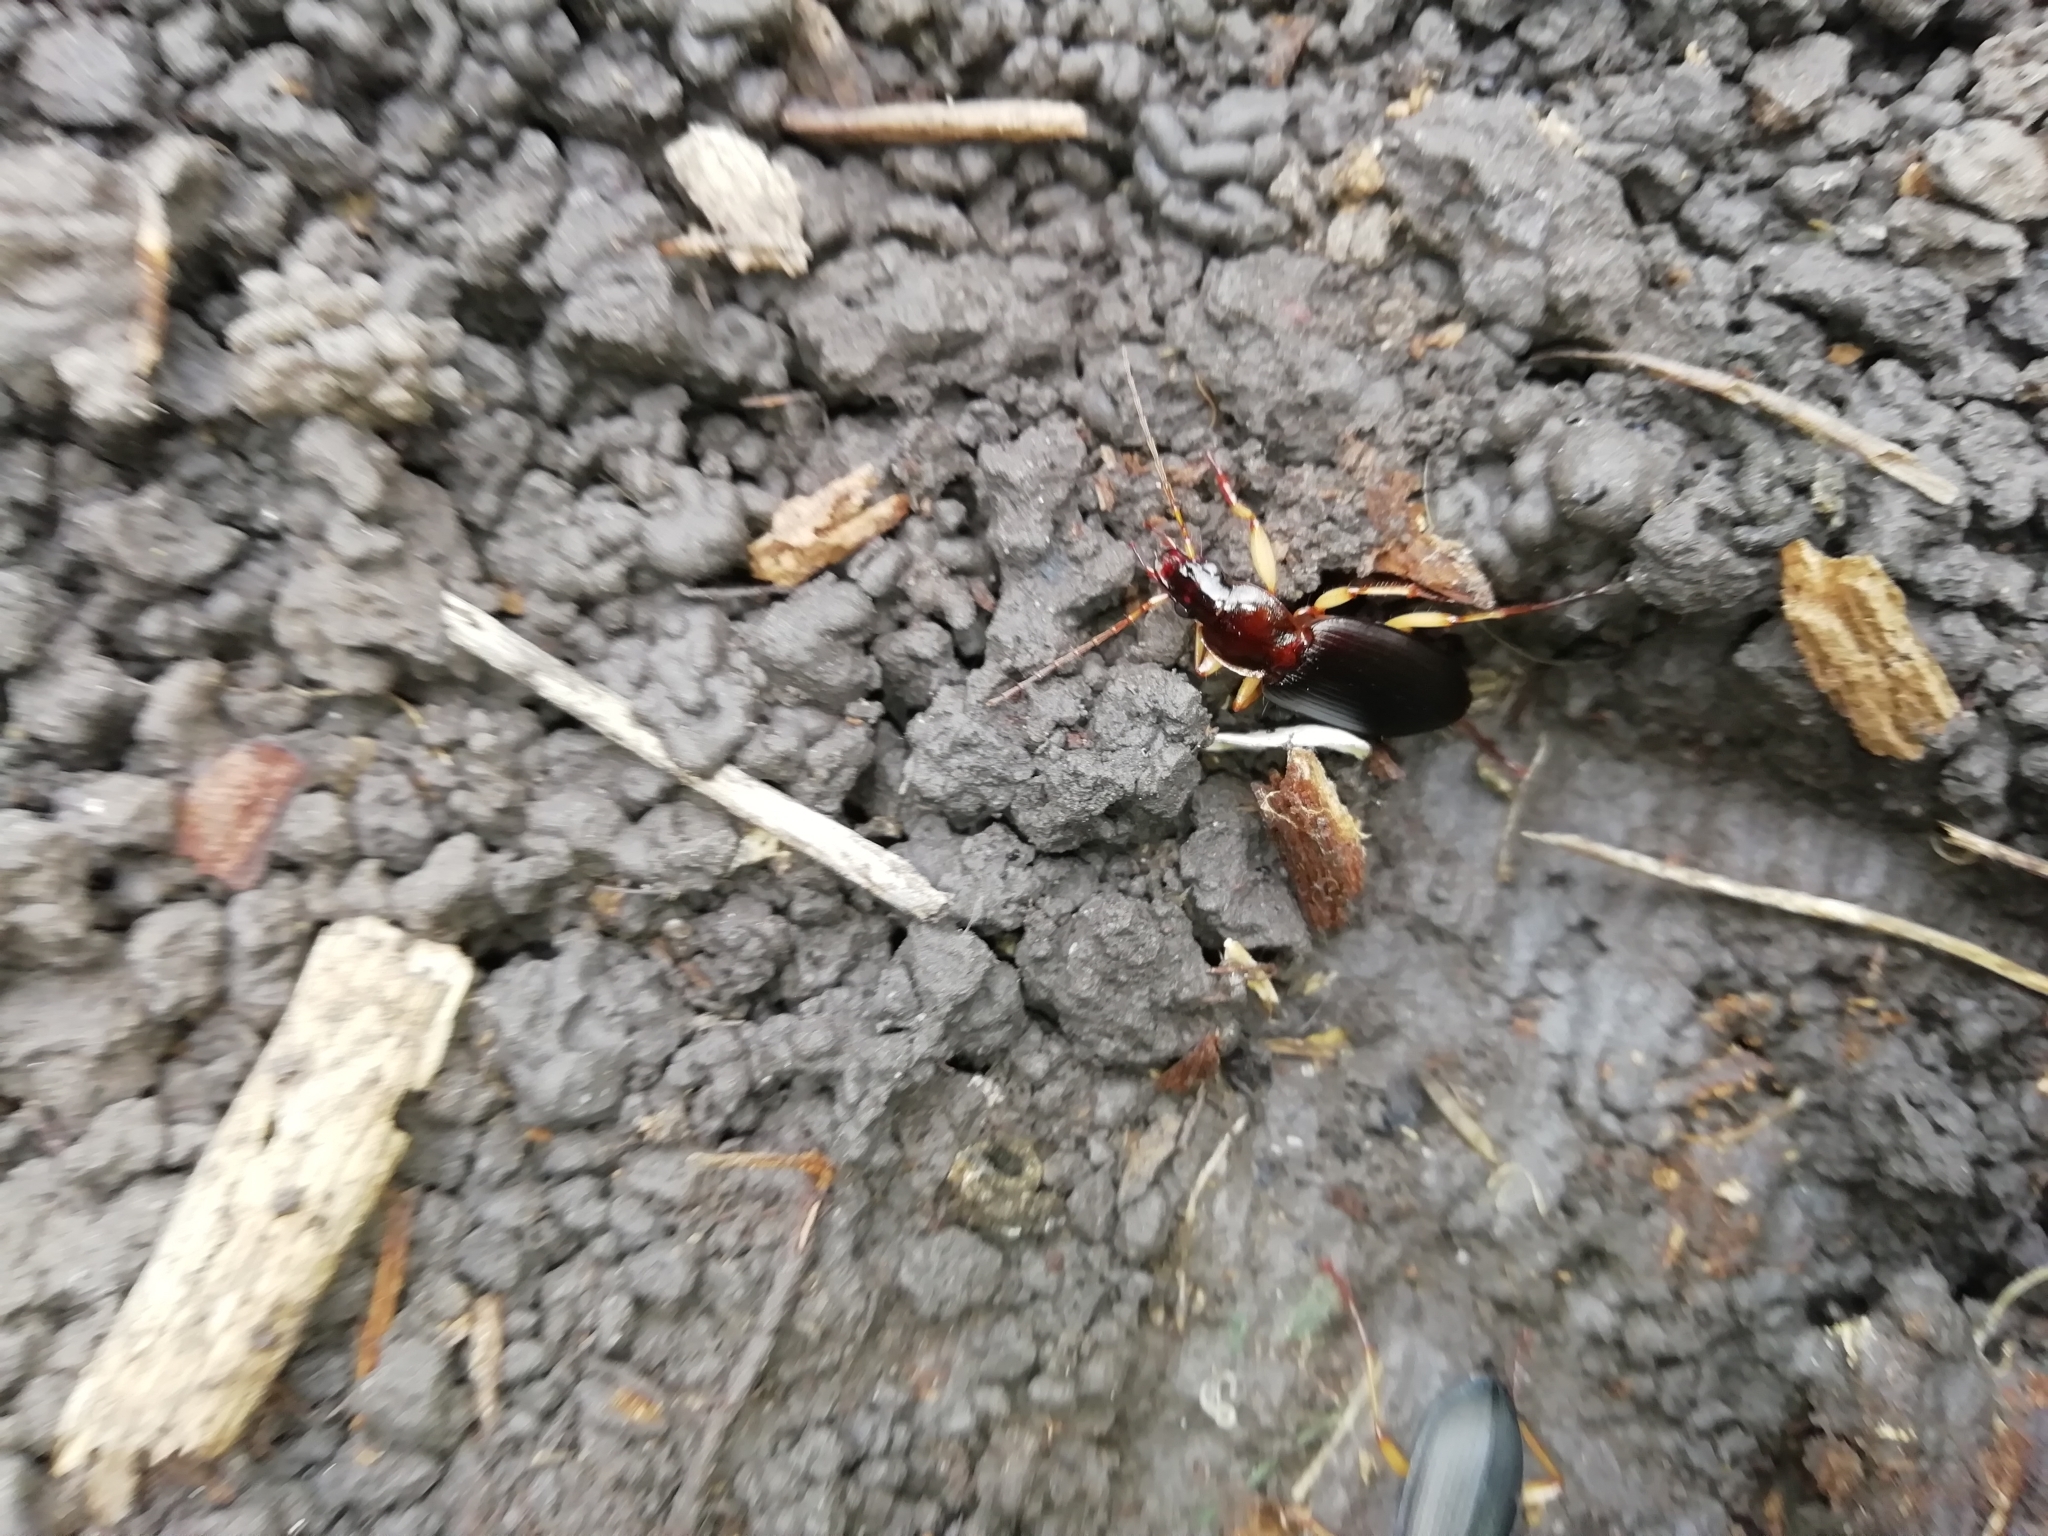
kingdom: Animalia
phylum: Arthropoda
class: Insecta
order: Coleoptera
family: Carabidae
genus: Dolichus
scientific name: Dolichus halensis
